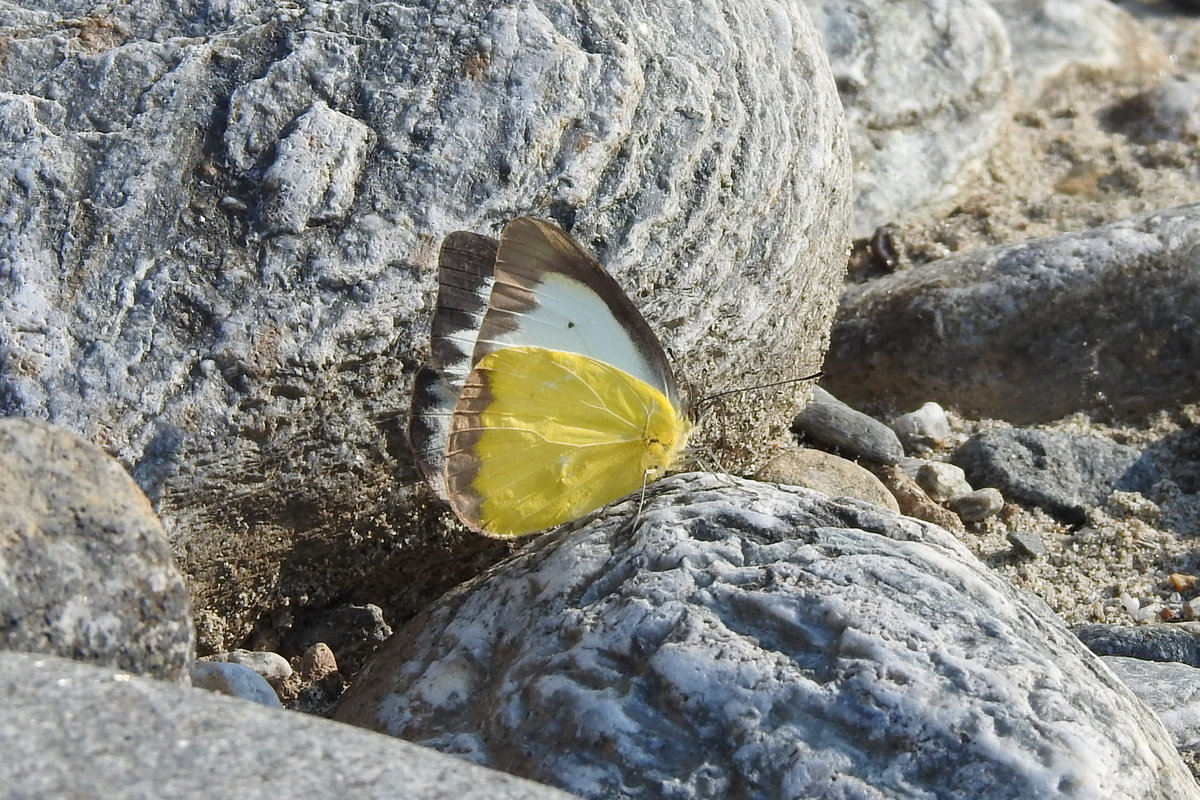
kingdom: Animalia
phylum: Arthropoda
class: Insecta
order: Lepidoptera
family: Pieridae
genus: Appias
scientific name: Appias lyncida
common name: Chocolate albatross
